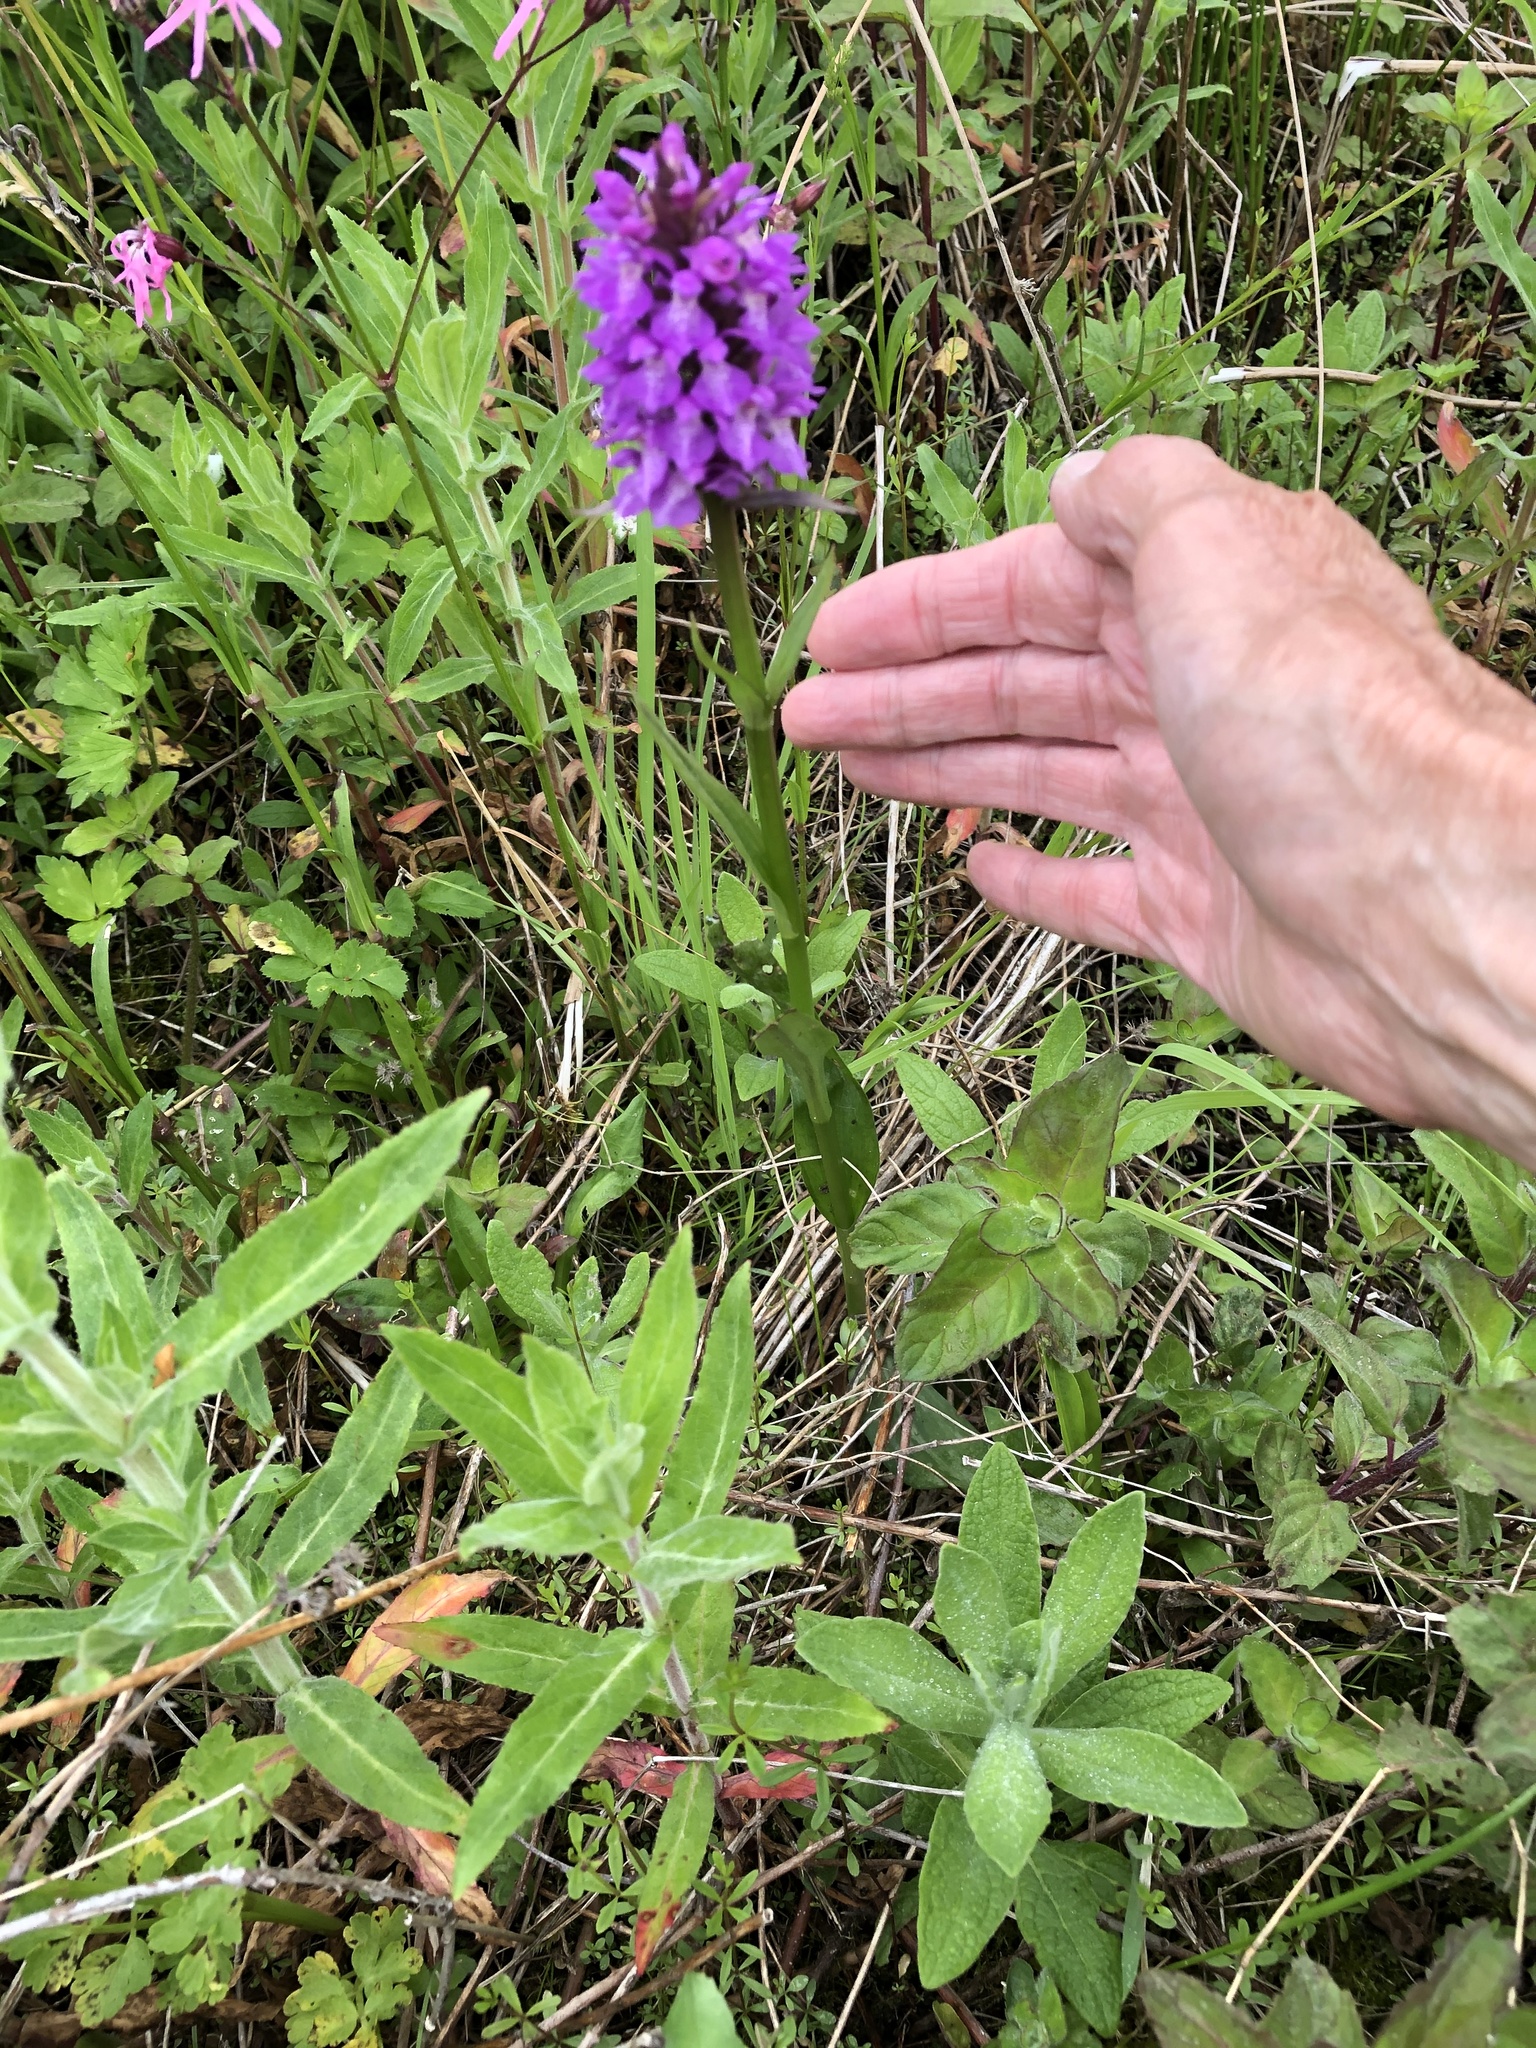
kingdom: Plantae
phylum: Tracheophyta
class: Liliopsida
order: Asparagales
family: Orchidaceae
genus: Dactylorhiza
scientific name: Dactylorhiza majalis
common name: Marsh orchid
